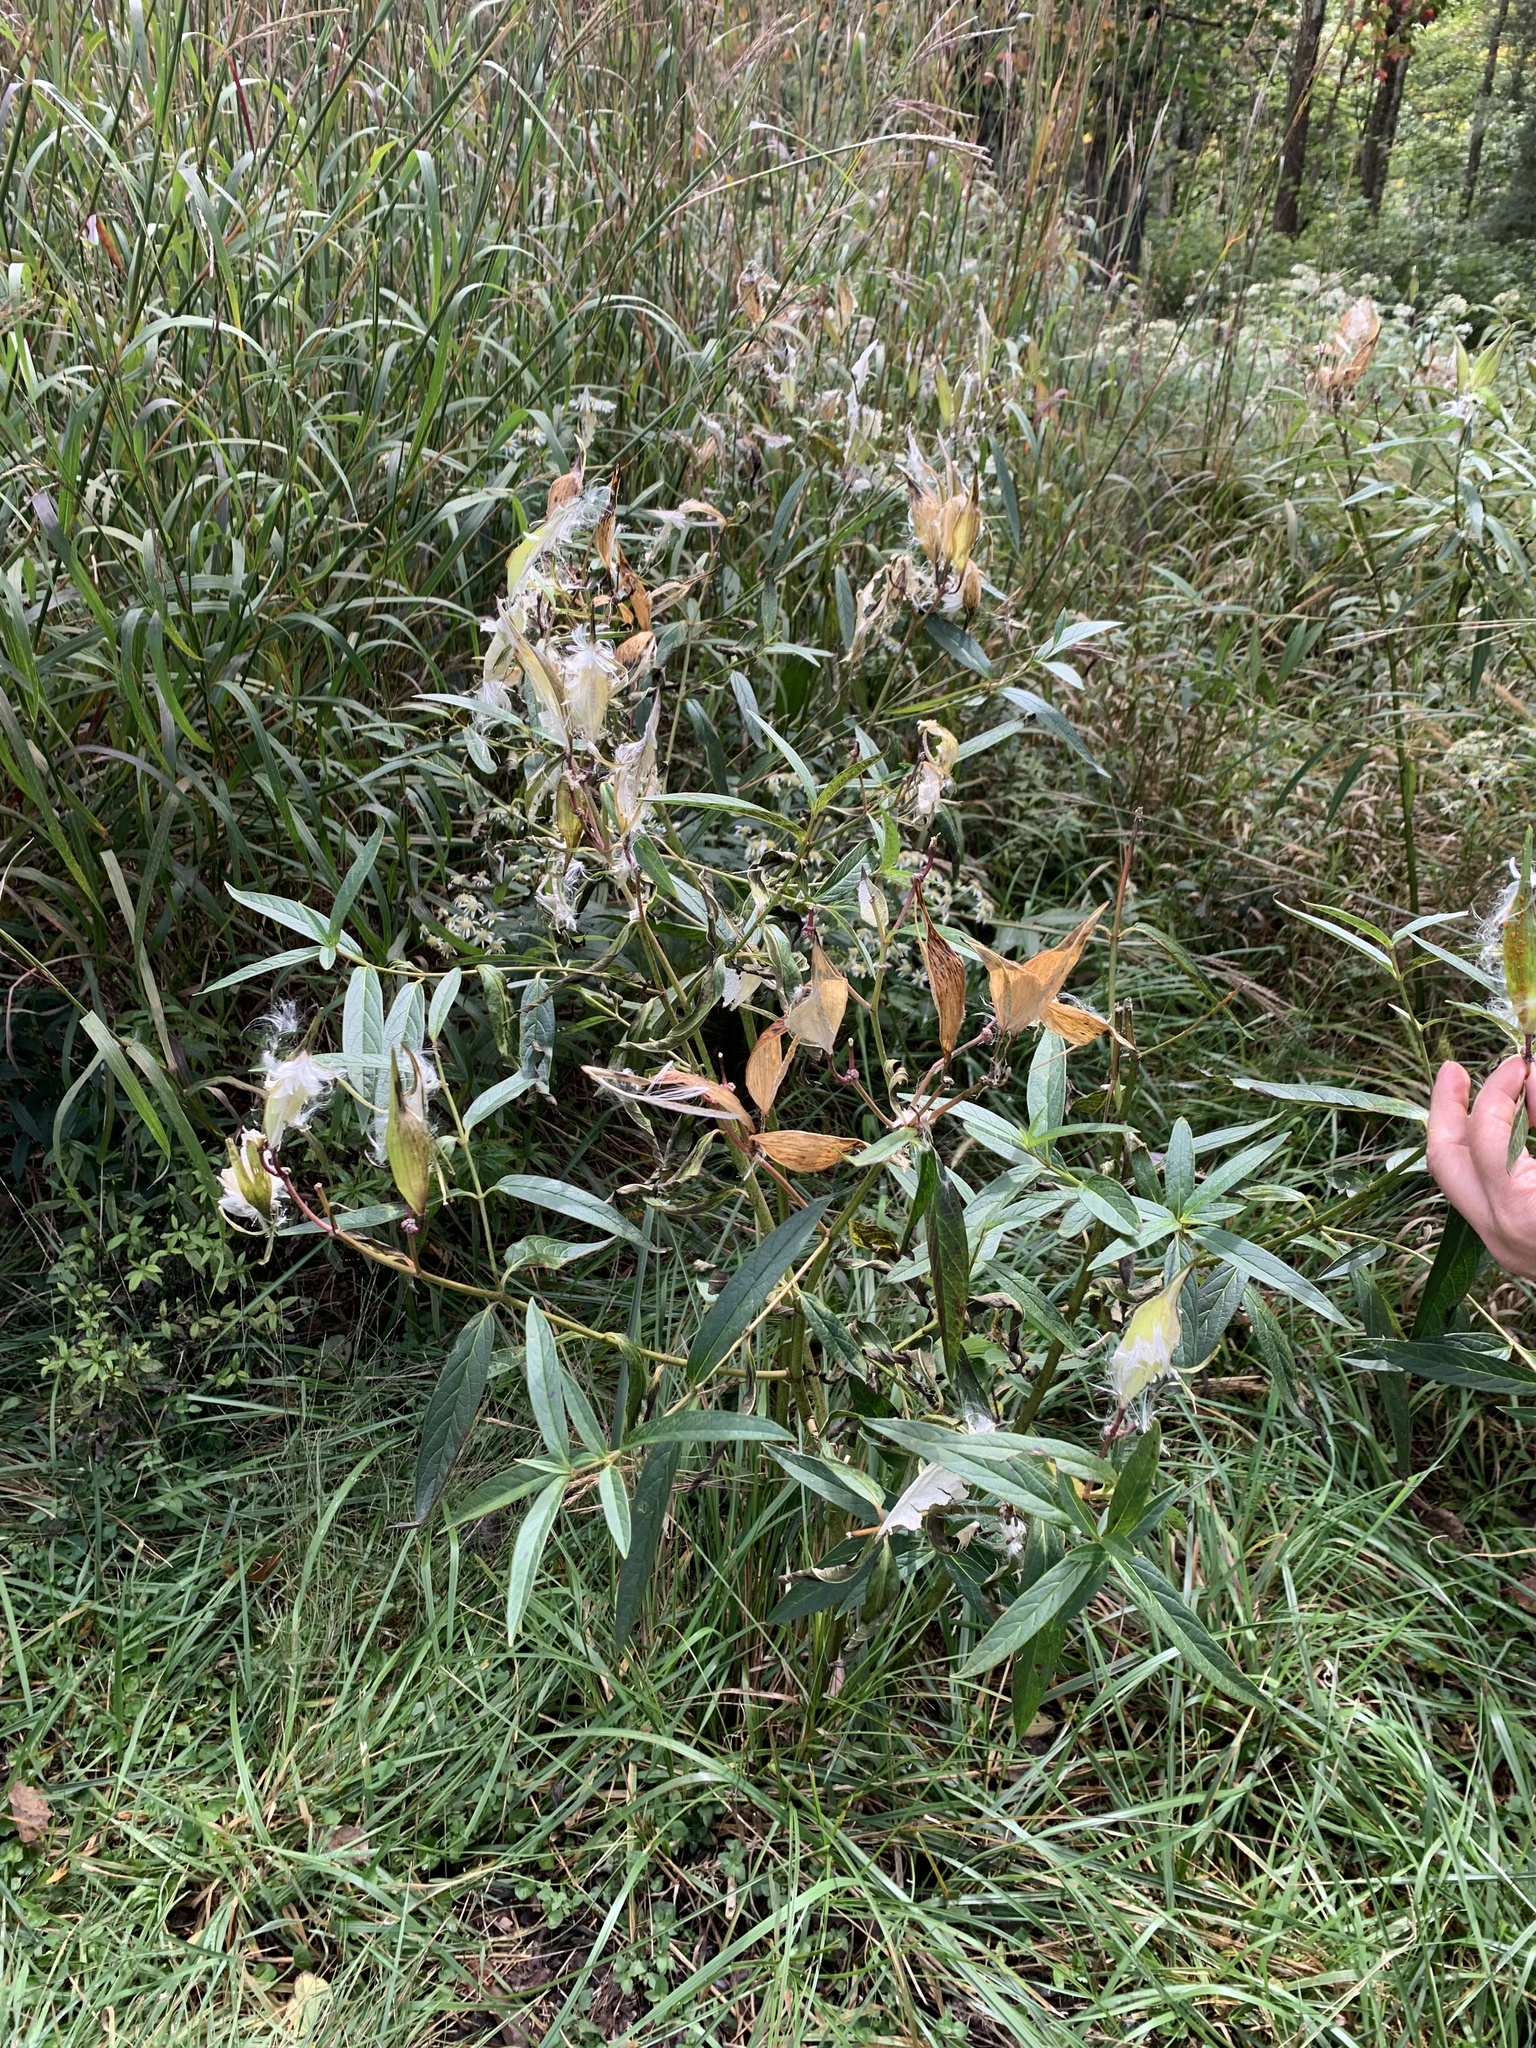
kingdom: Plantae
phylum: Tracheophyta
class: Magnoliopsida
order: Gentianales
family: Apocynaceae
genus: Asclepias
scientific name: Asclepias incarnata
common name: Swamp milkweed
